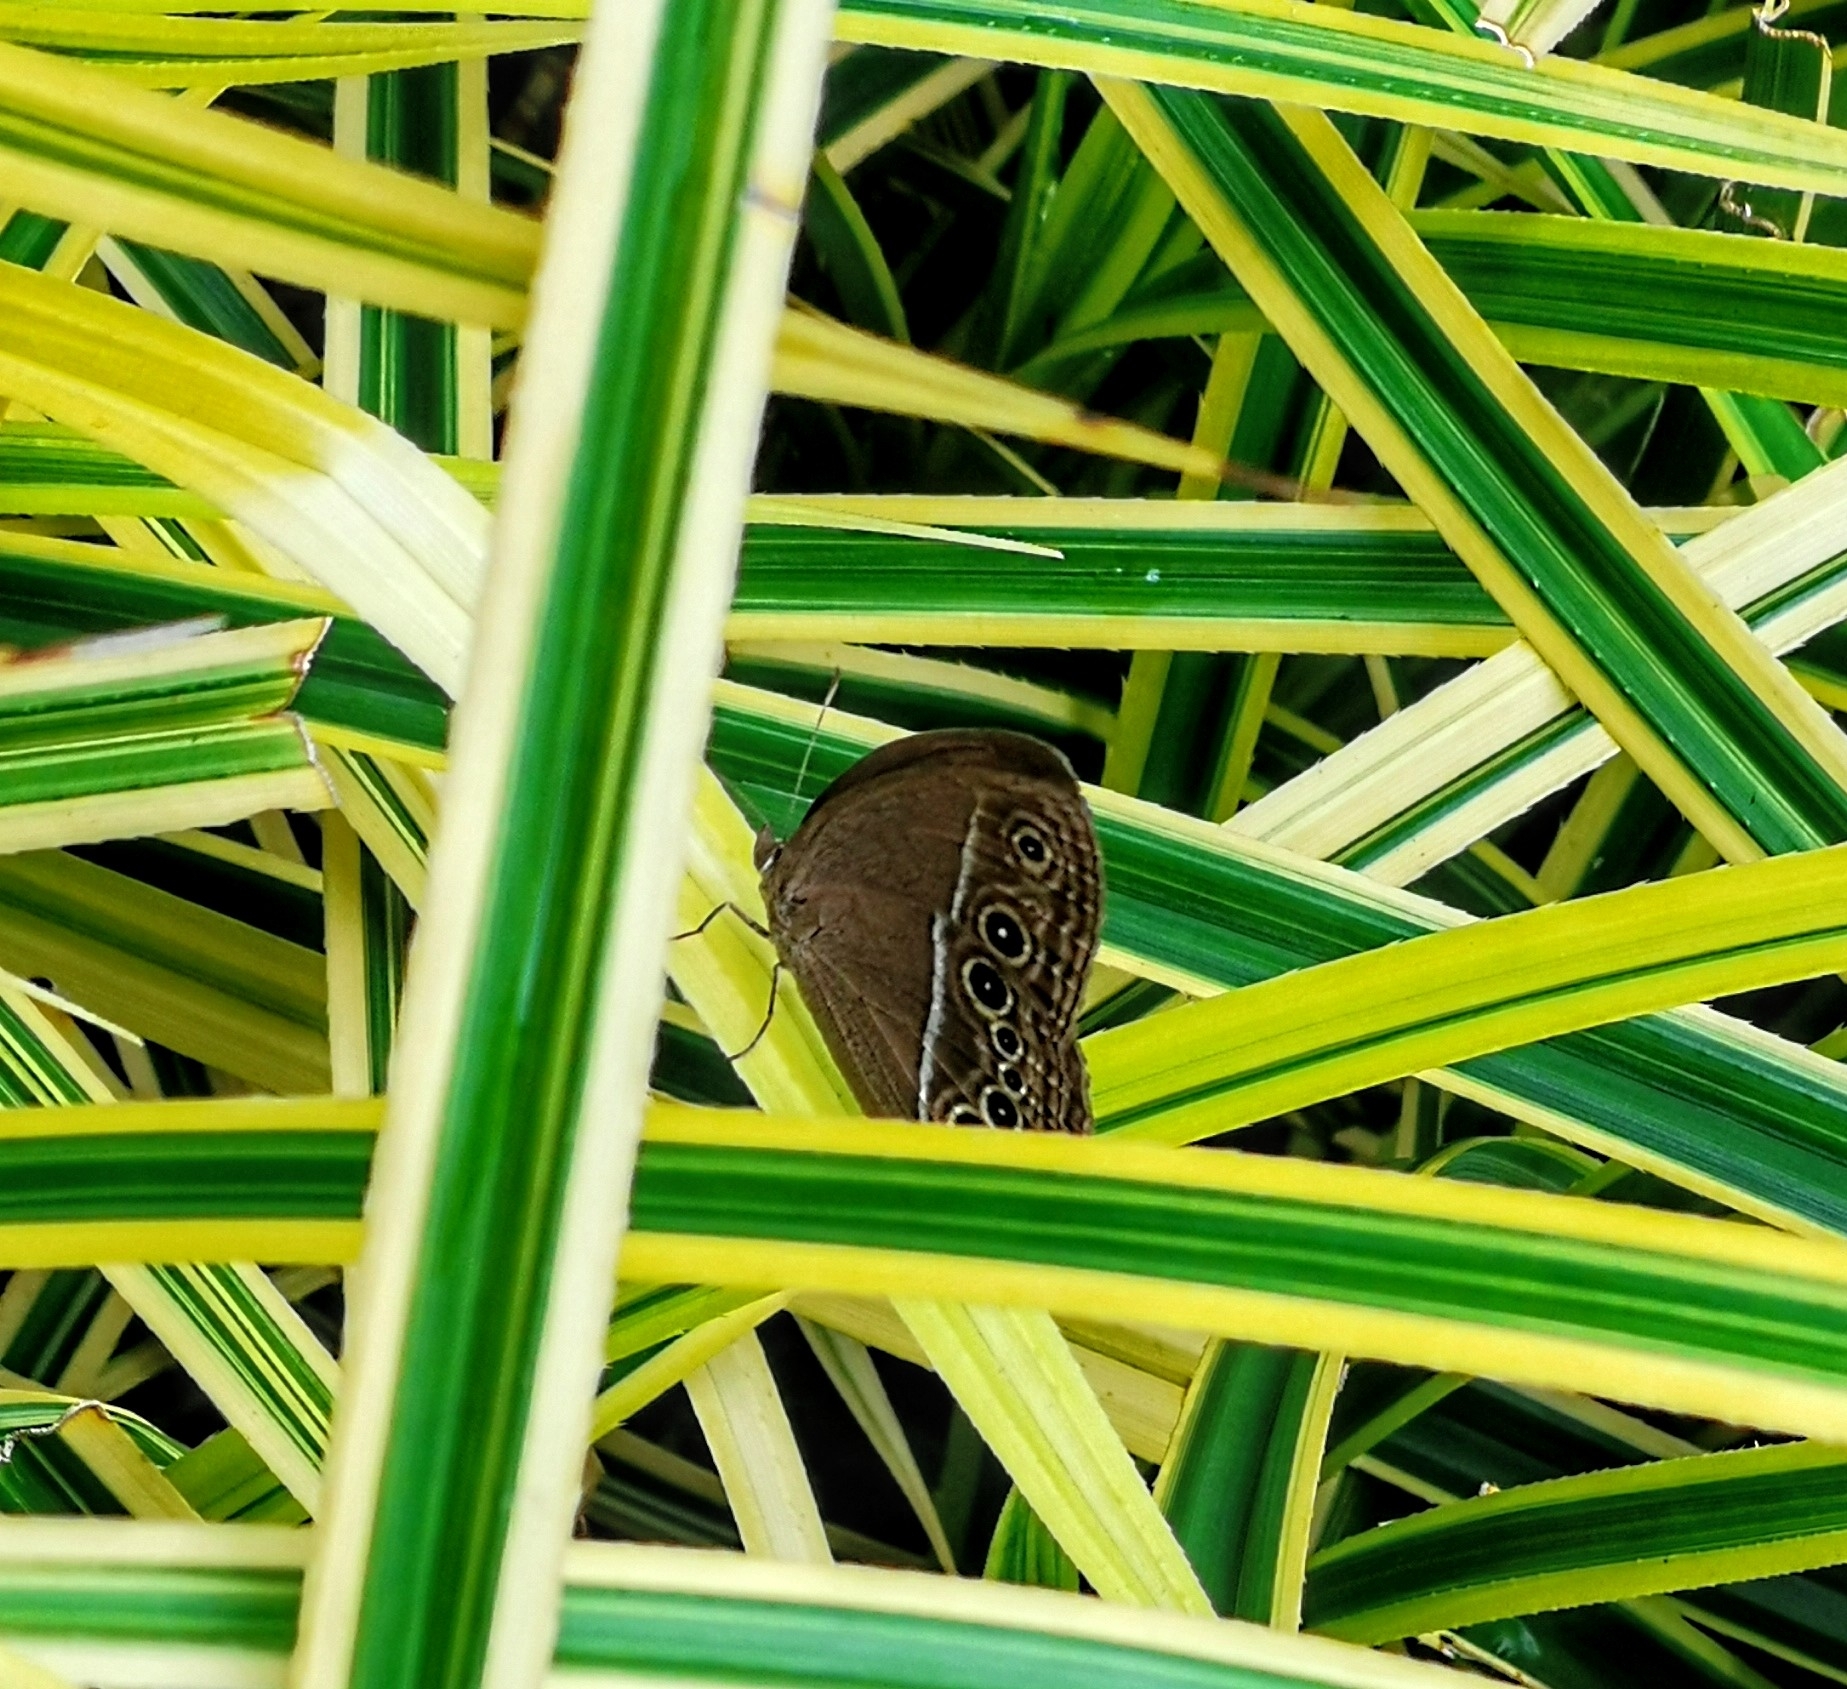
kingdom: Animalia
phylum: Arthropoda
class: Insecta
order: Lepidoptera
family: Nymphalidae
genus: Mycalesis
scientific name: Mycalesis mineus
